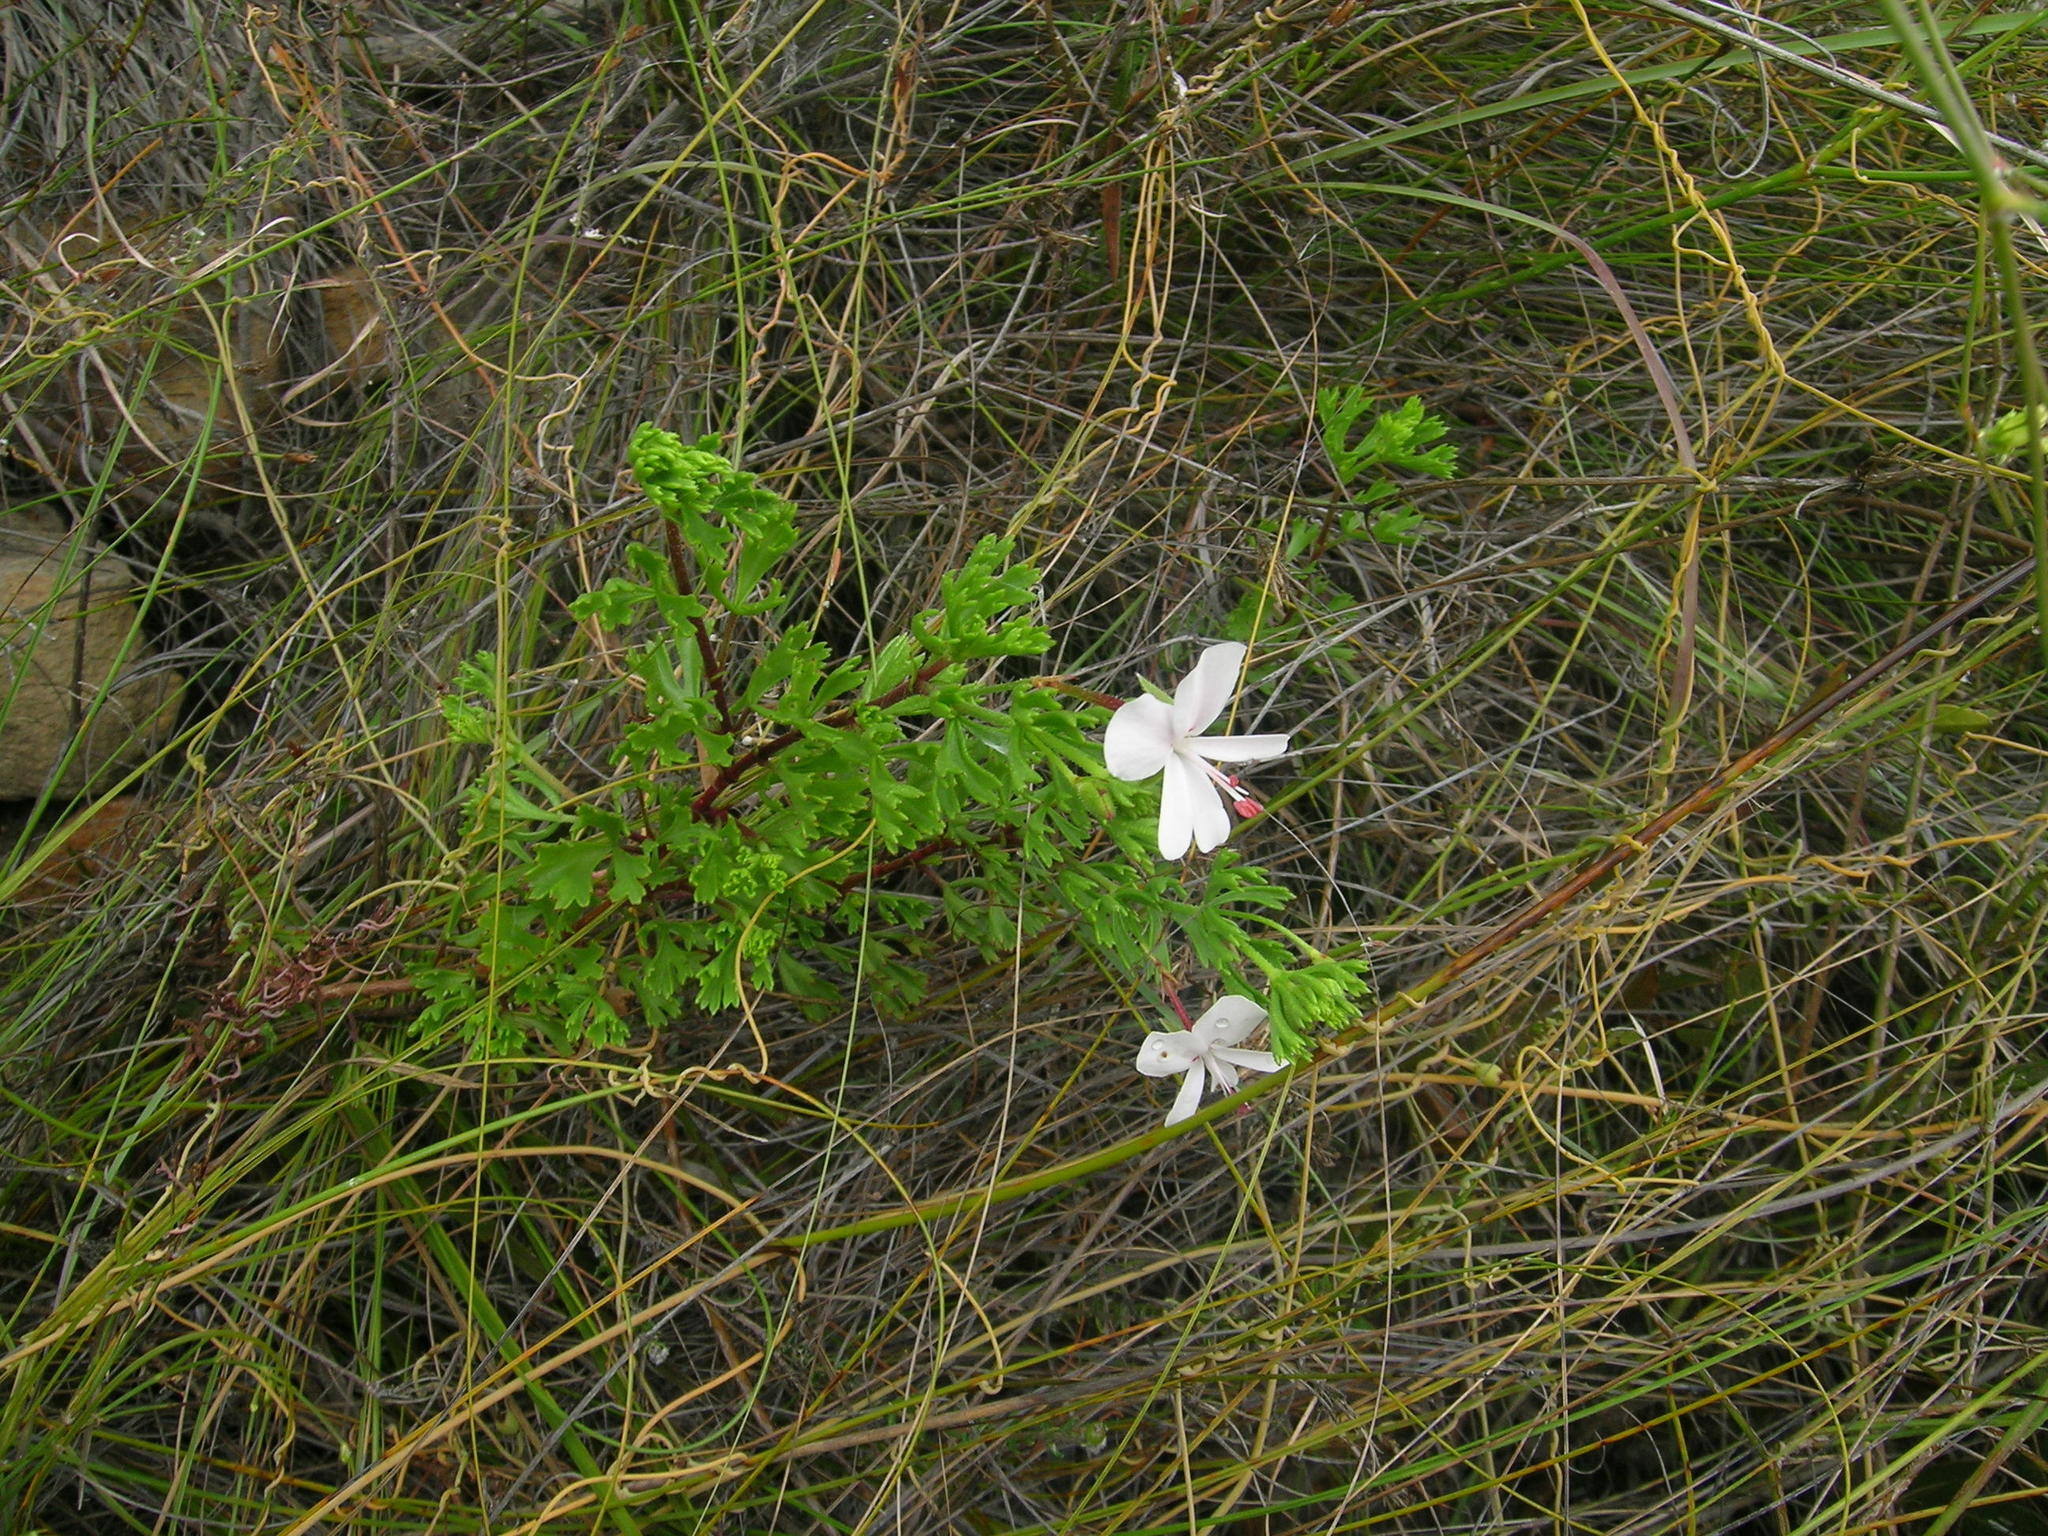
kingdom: Plantae
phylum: Tracheophyta
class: Magnoliopsida
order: Geraniales
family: Geraniaceae
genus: Pelargonium
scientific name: Pelargonium ternatum
